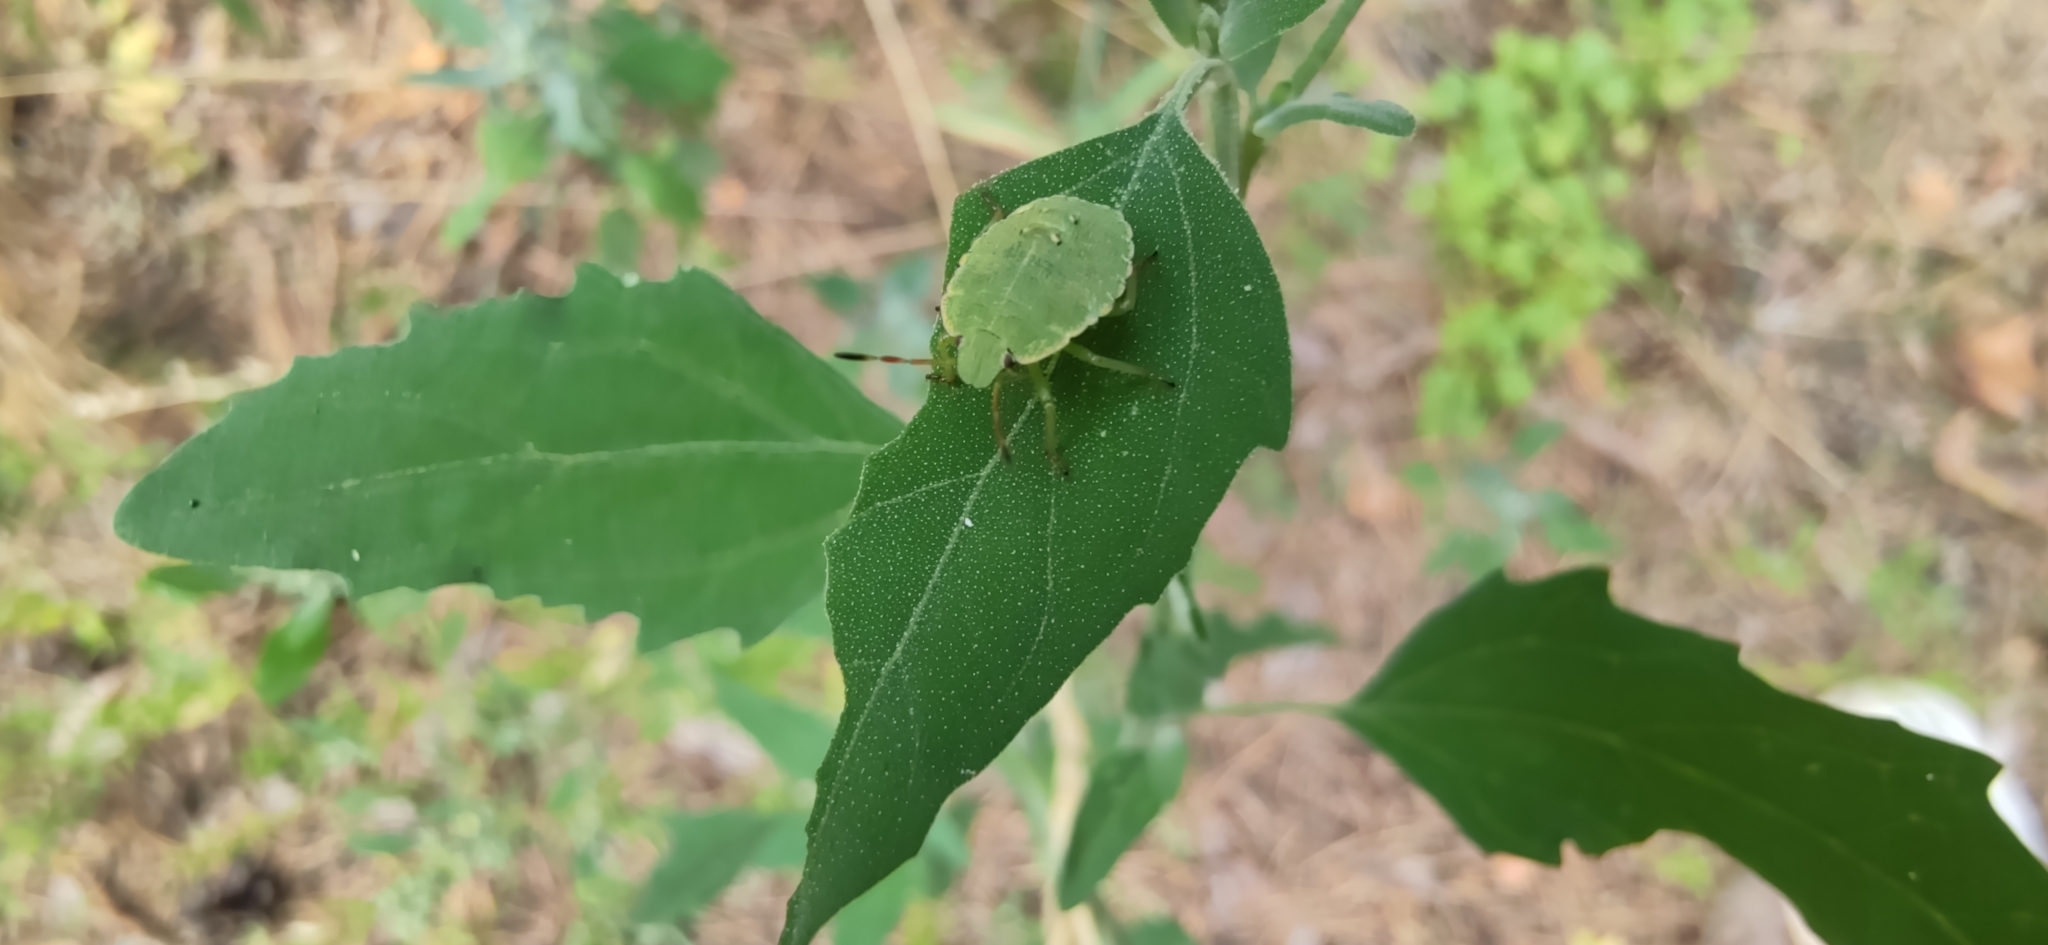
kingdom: Animalia
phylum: Arthropoda
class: Insecta
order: Hemiptera
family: Pentatomidae
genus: Palomena
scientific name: Palomena prasina
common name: Green shieldbug
